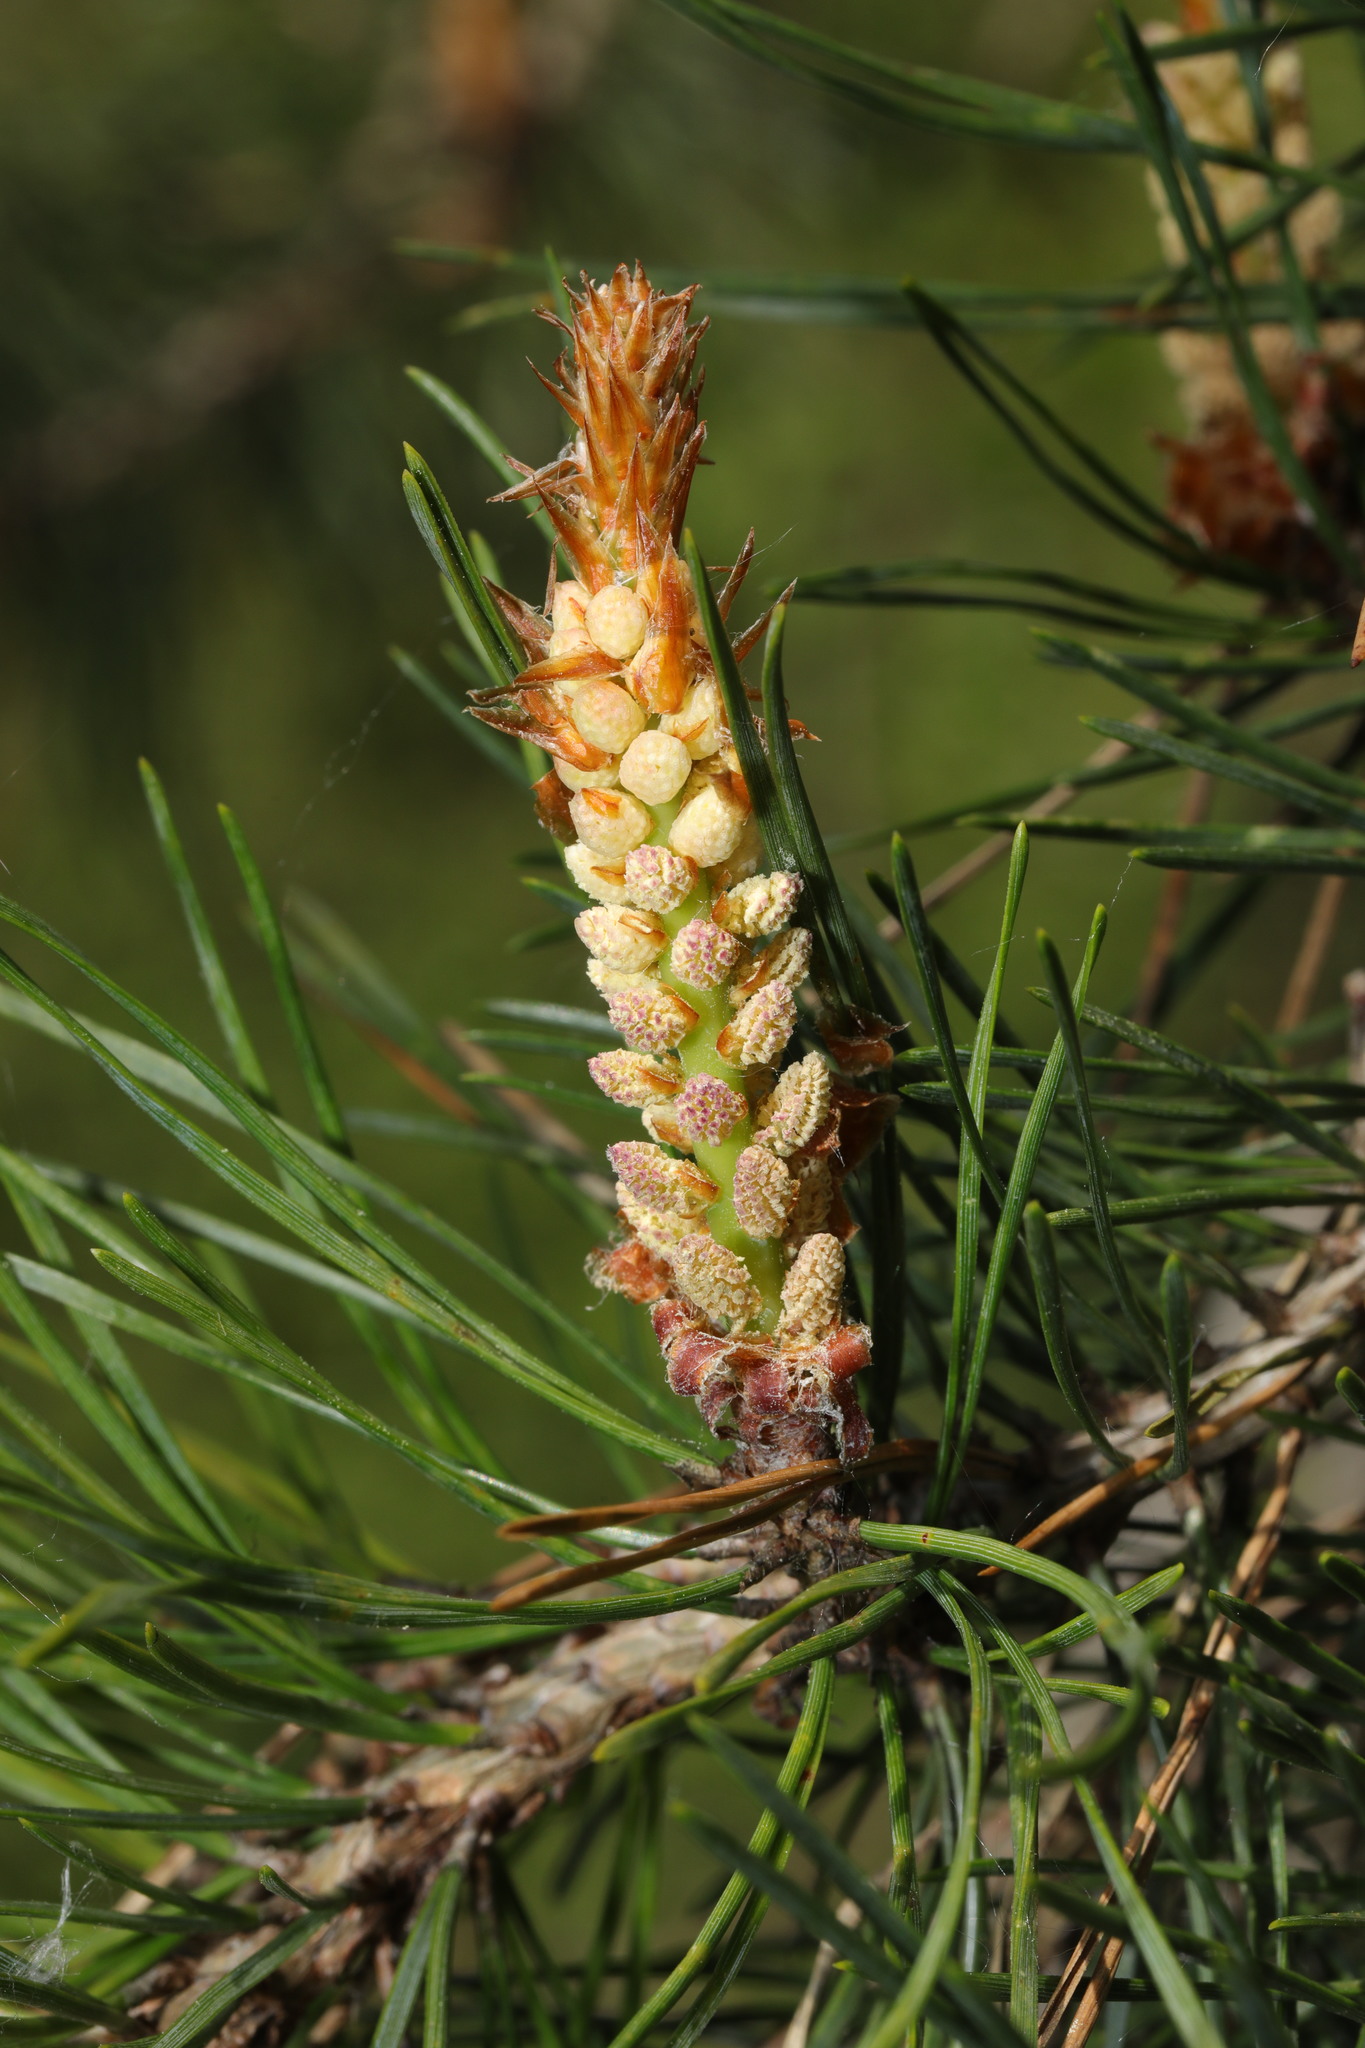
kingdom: Plantae
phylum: Tracheophyta
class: Pinopsida
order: Pinales
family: Pinaceae
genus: Pinus
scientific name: Pinus sylvestris
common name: Scots pine
